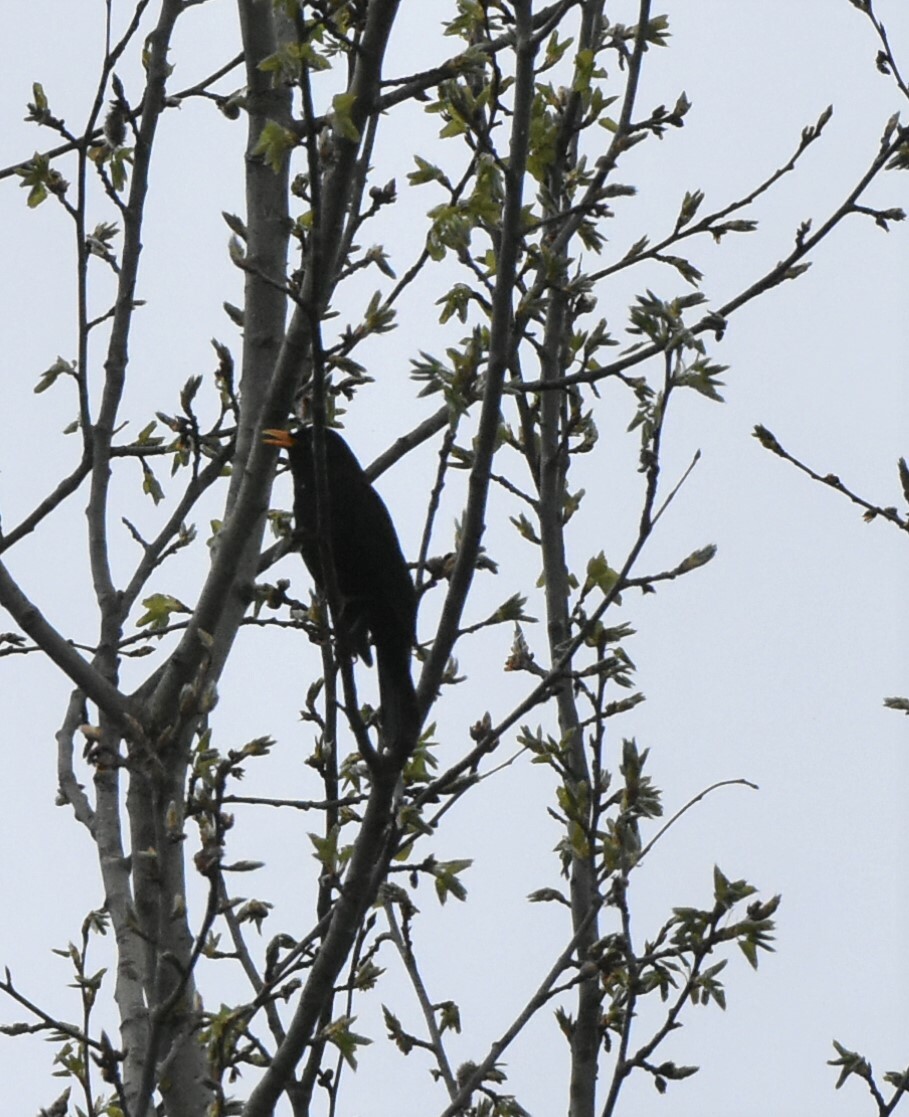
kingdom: Animalia
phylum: Chordata
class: Aves
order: Passeriformes
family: Turdidae
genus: Turdus
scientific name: Turdus merula
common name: Common blackbird
